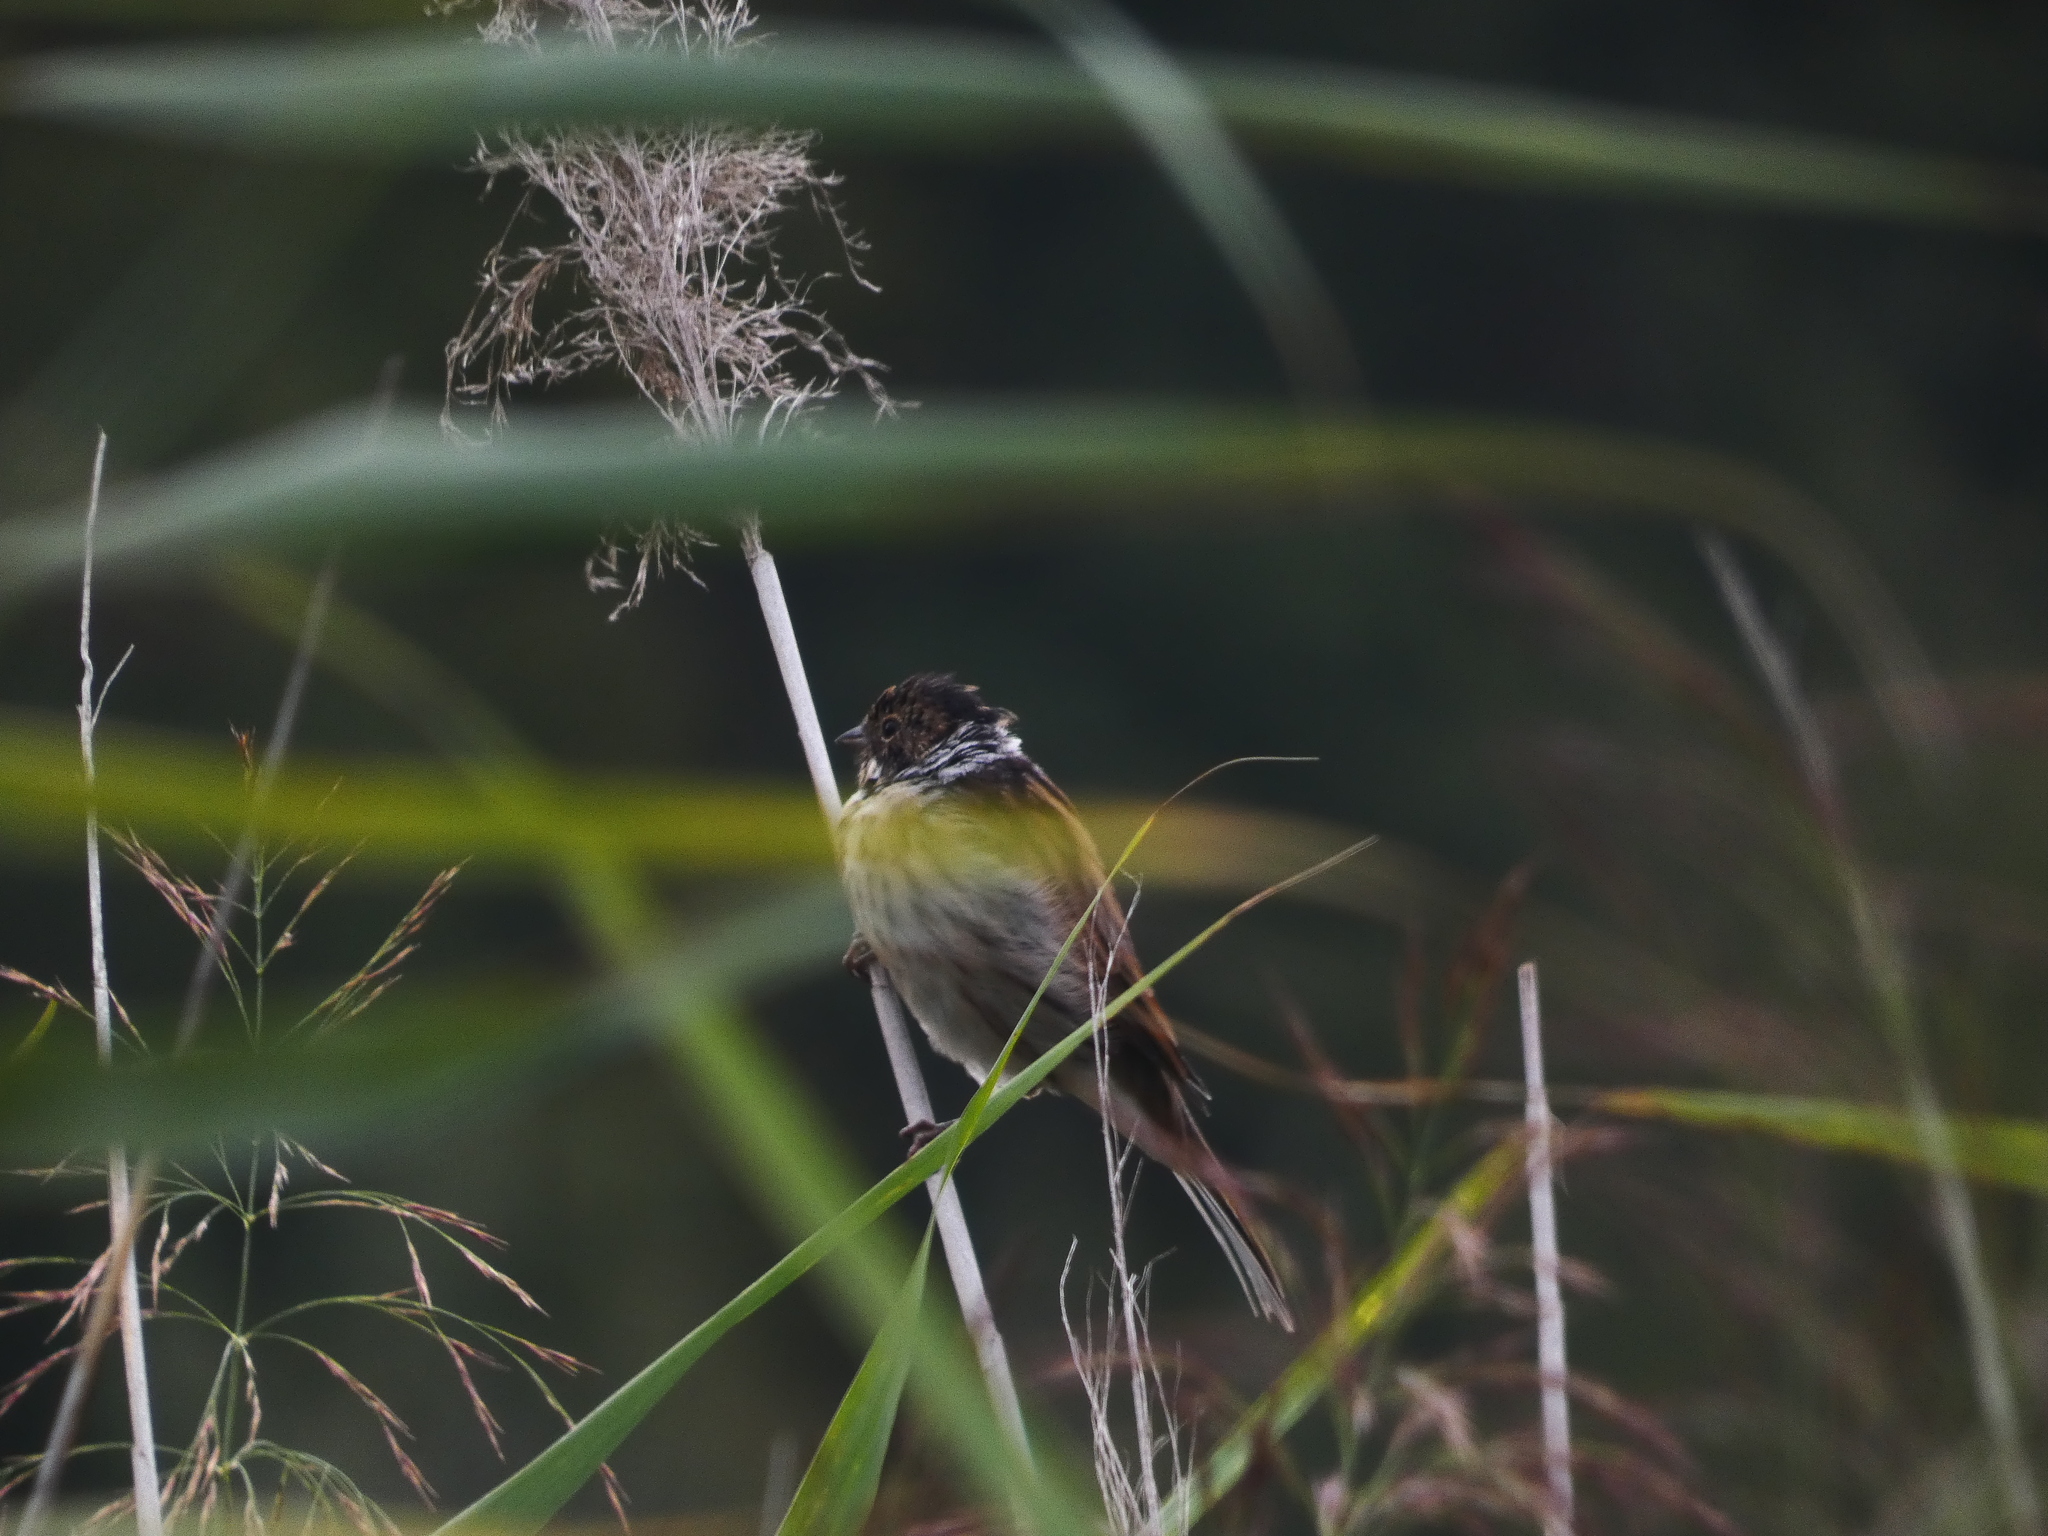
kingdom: Animalia
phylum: Chordata
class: Aves
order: Passeriformes
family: Emberizidae
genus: Emberiza
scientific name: Emberiza schoeniclus
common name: Reed bunting
